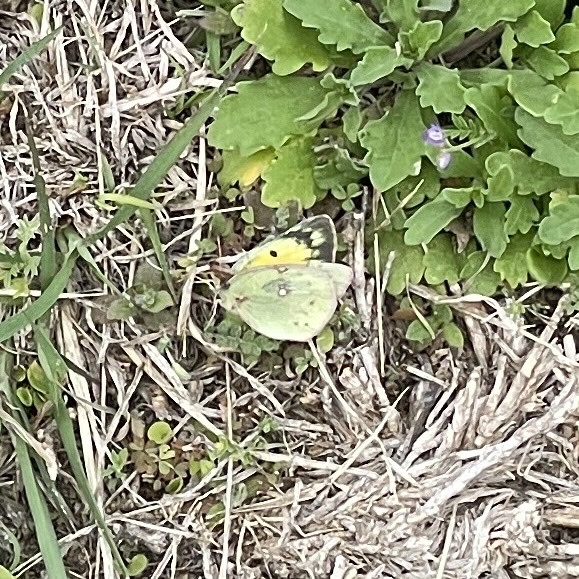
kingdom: Animalia
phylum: Arthropoda
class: Insecta
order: Lepidoptera
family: Pieridae
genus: Colias
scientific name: Colias eurytheme
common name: Alfalfa butterfly
